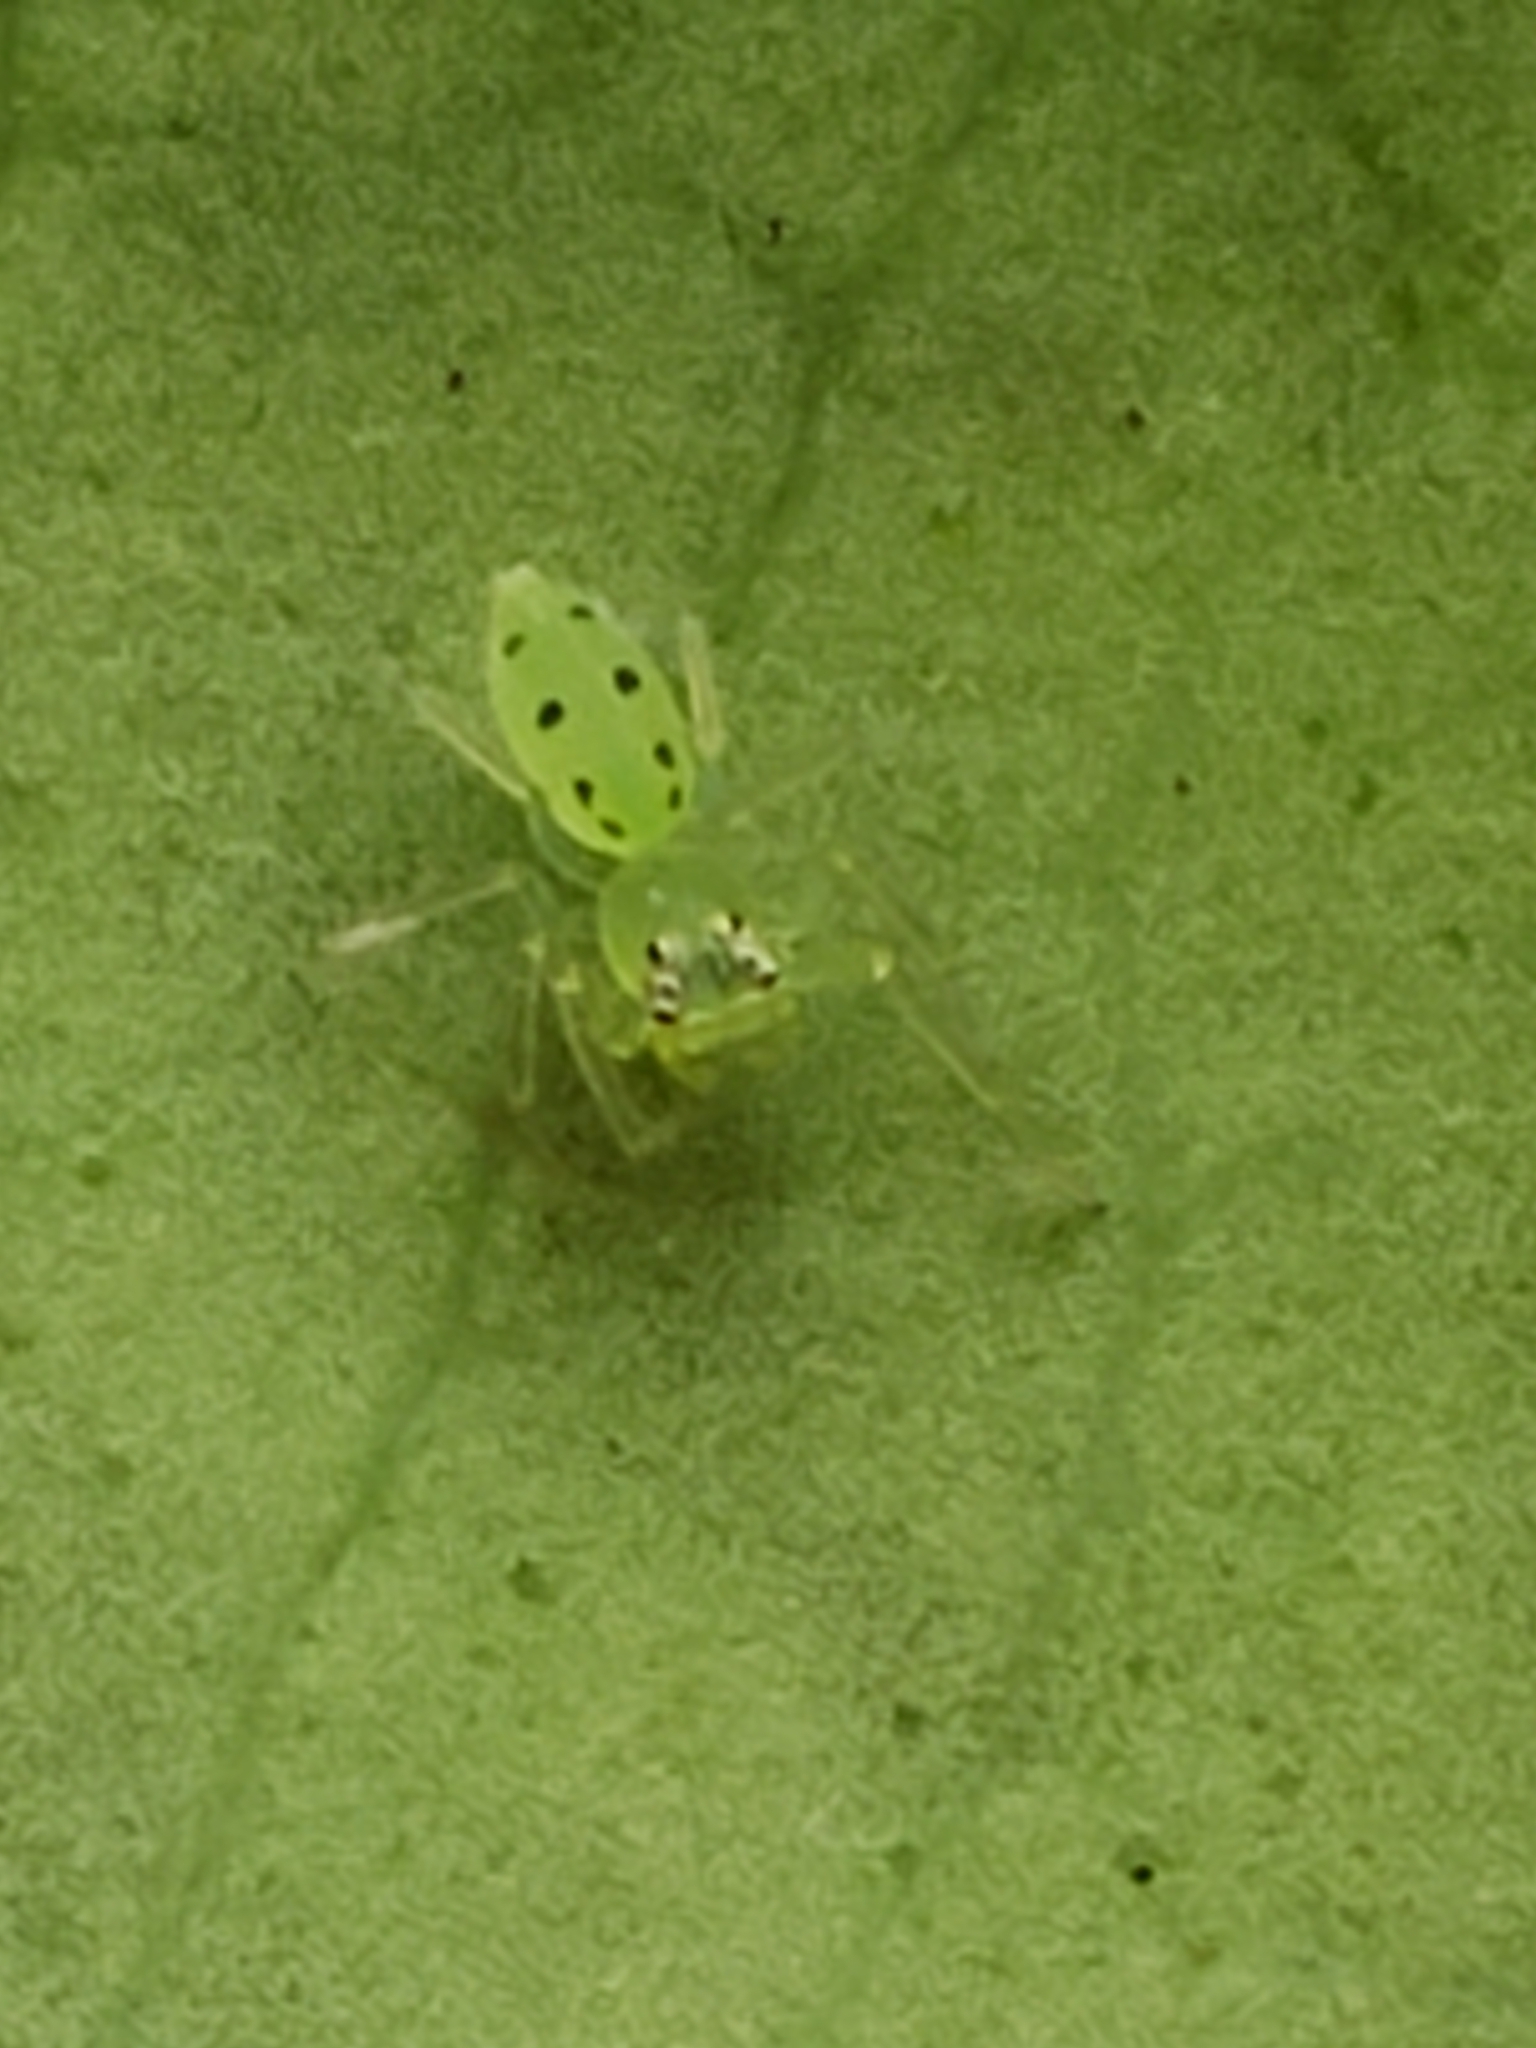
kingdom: Animalia
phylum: Arthropoda
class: Arachnida
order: Araneae
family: Salticidae
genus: Lyssomanes
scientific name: Lyssomanes viridis
